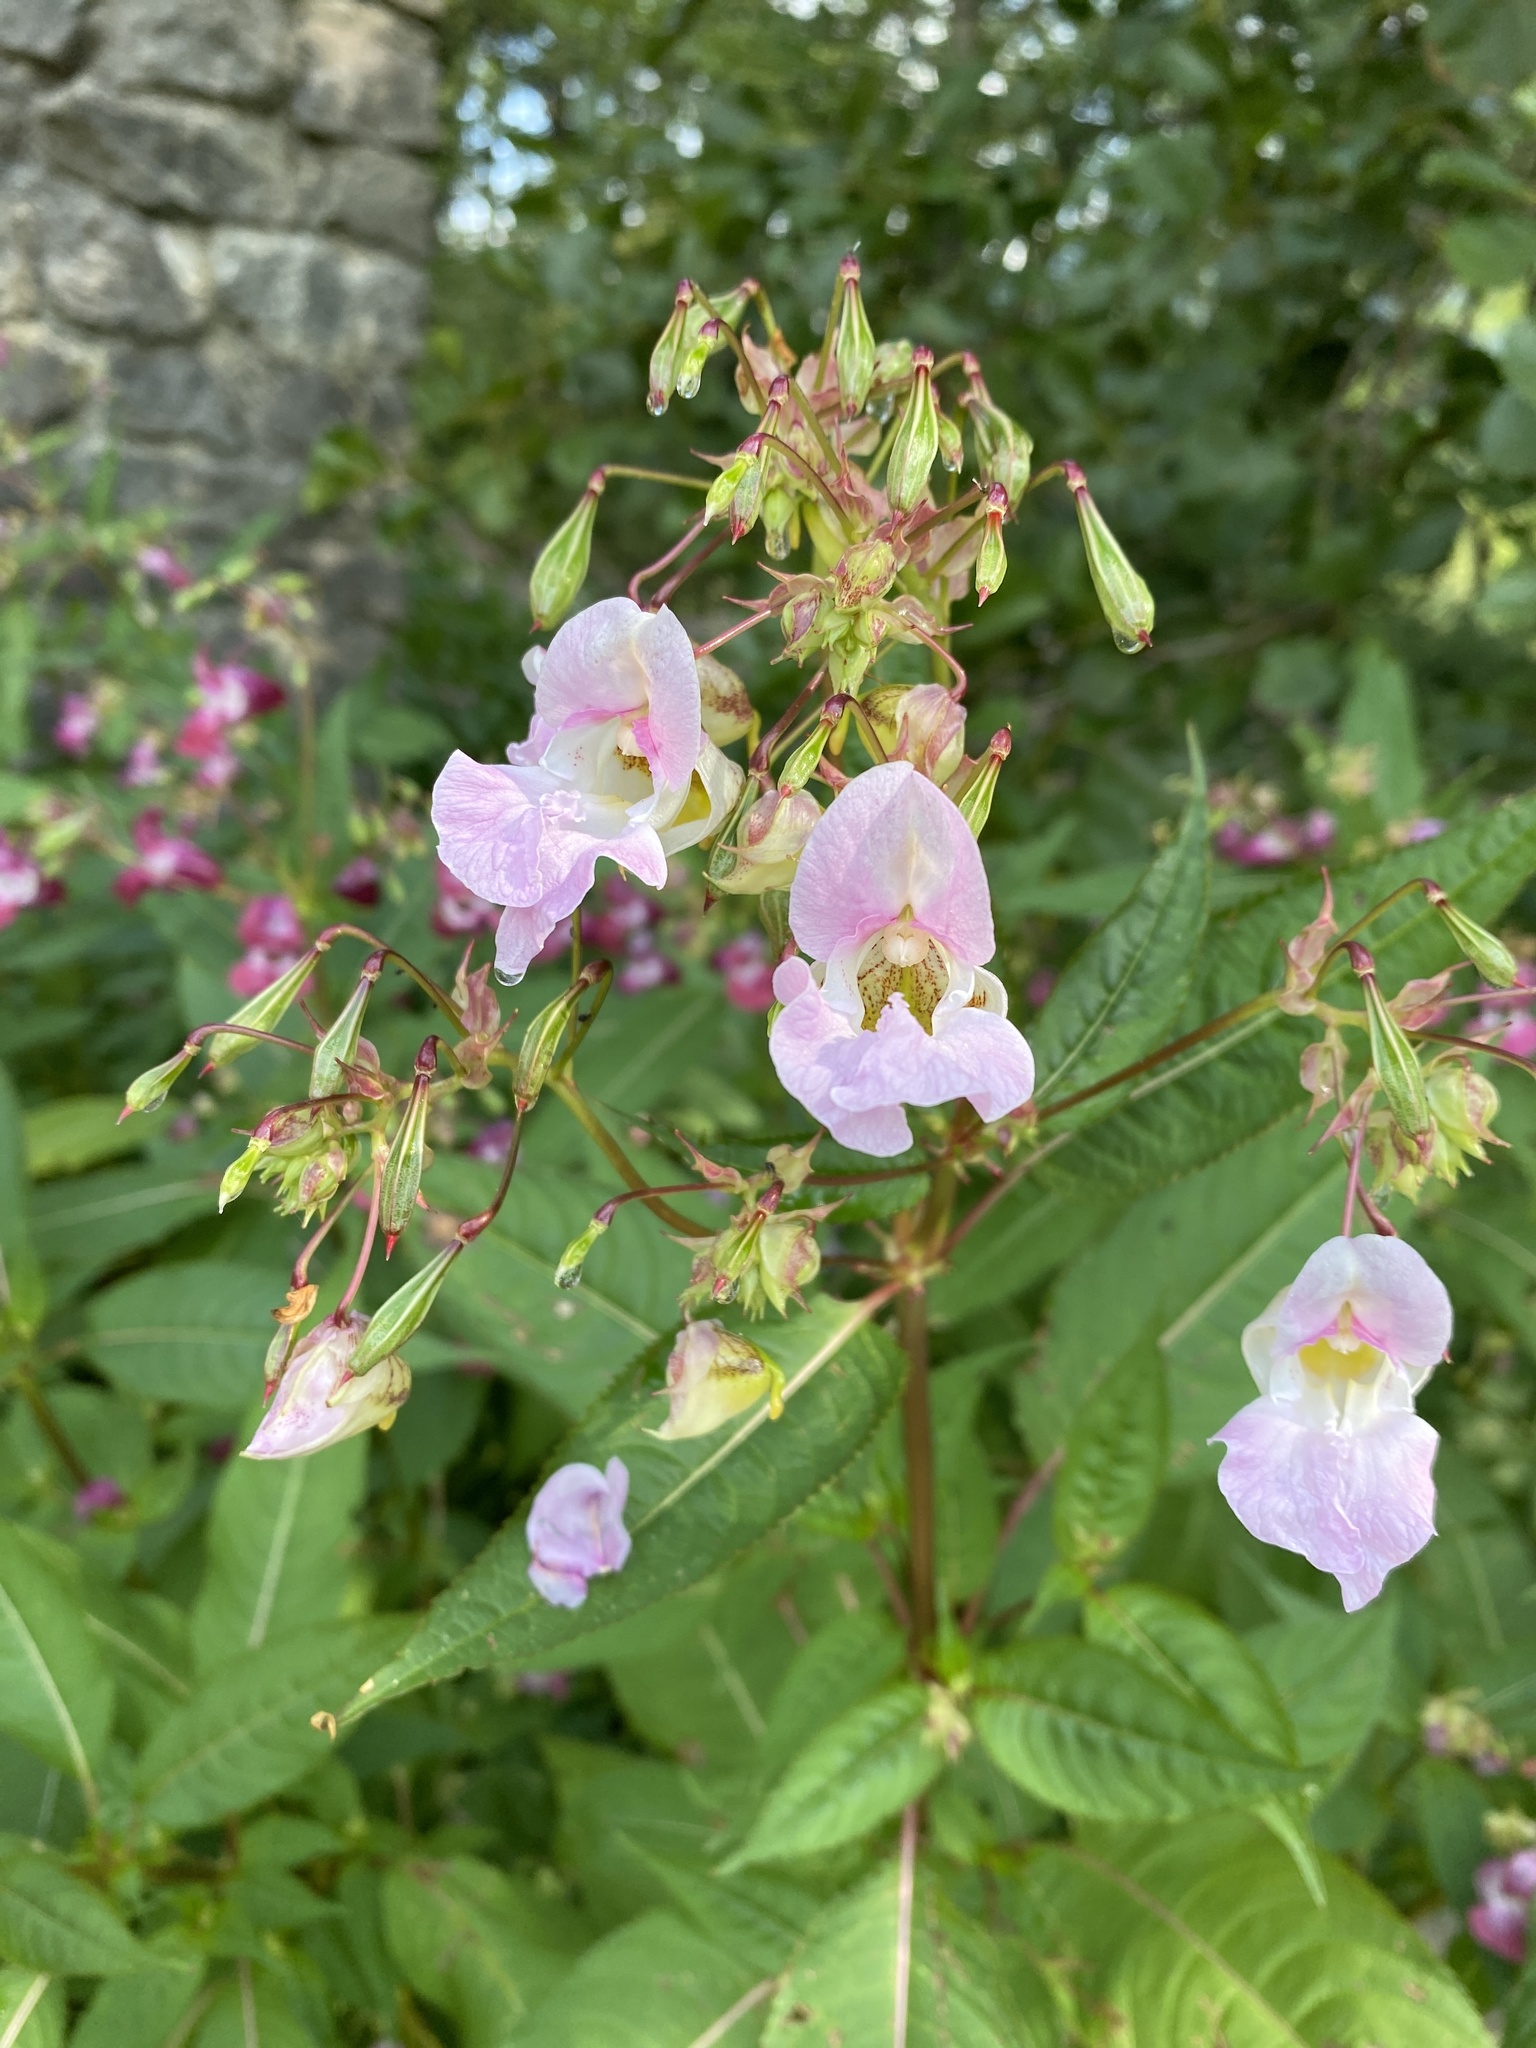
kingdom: Plantae
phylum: Tracheophyta
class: Magnoliopsida
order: Ericales
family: Balsaminaceae
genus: Impatiens
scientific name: Impatiens glandulifera
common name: Himalayan balsam
